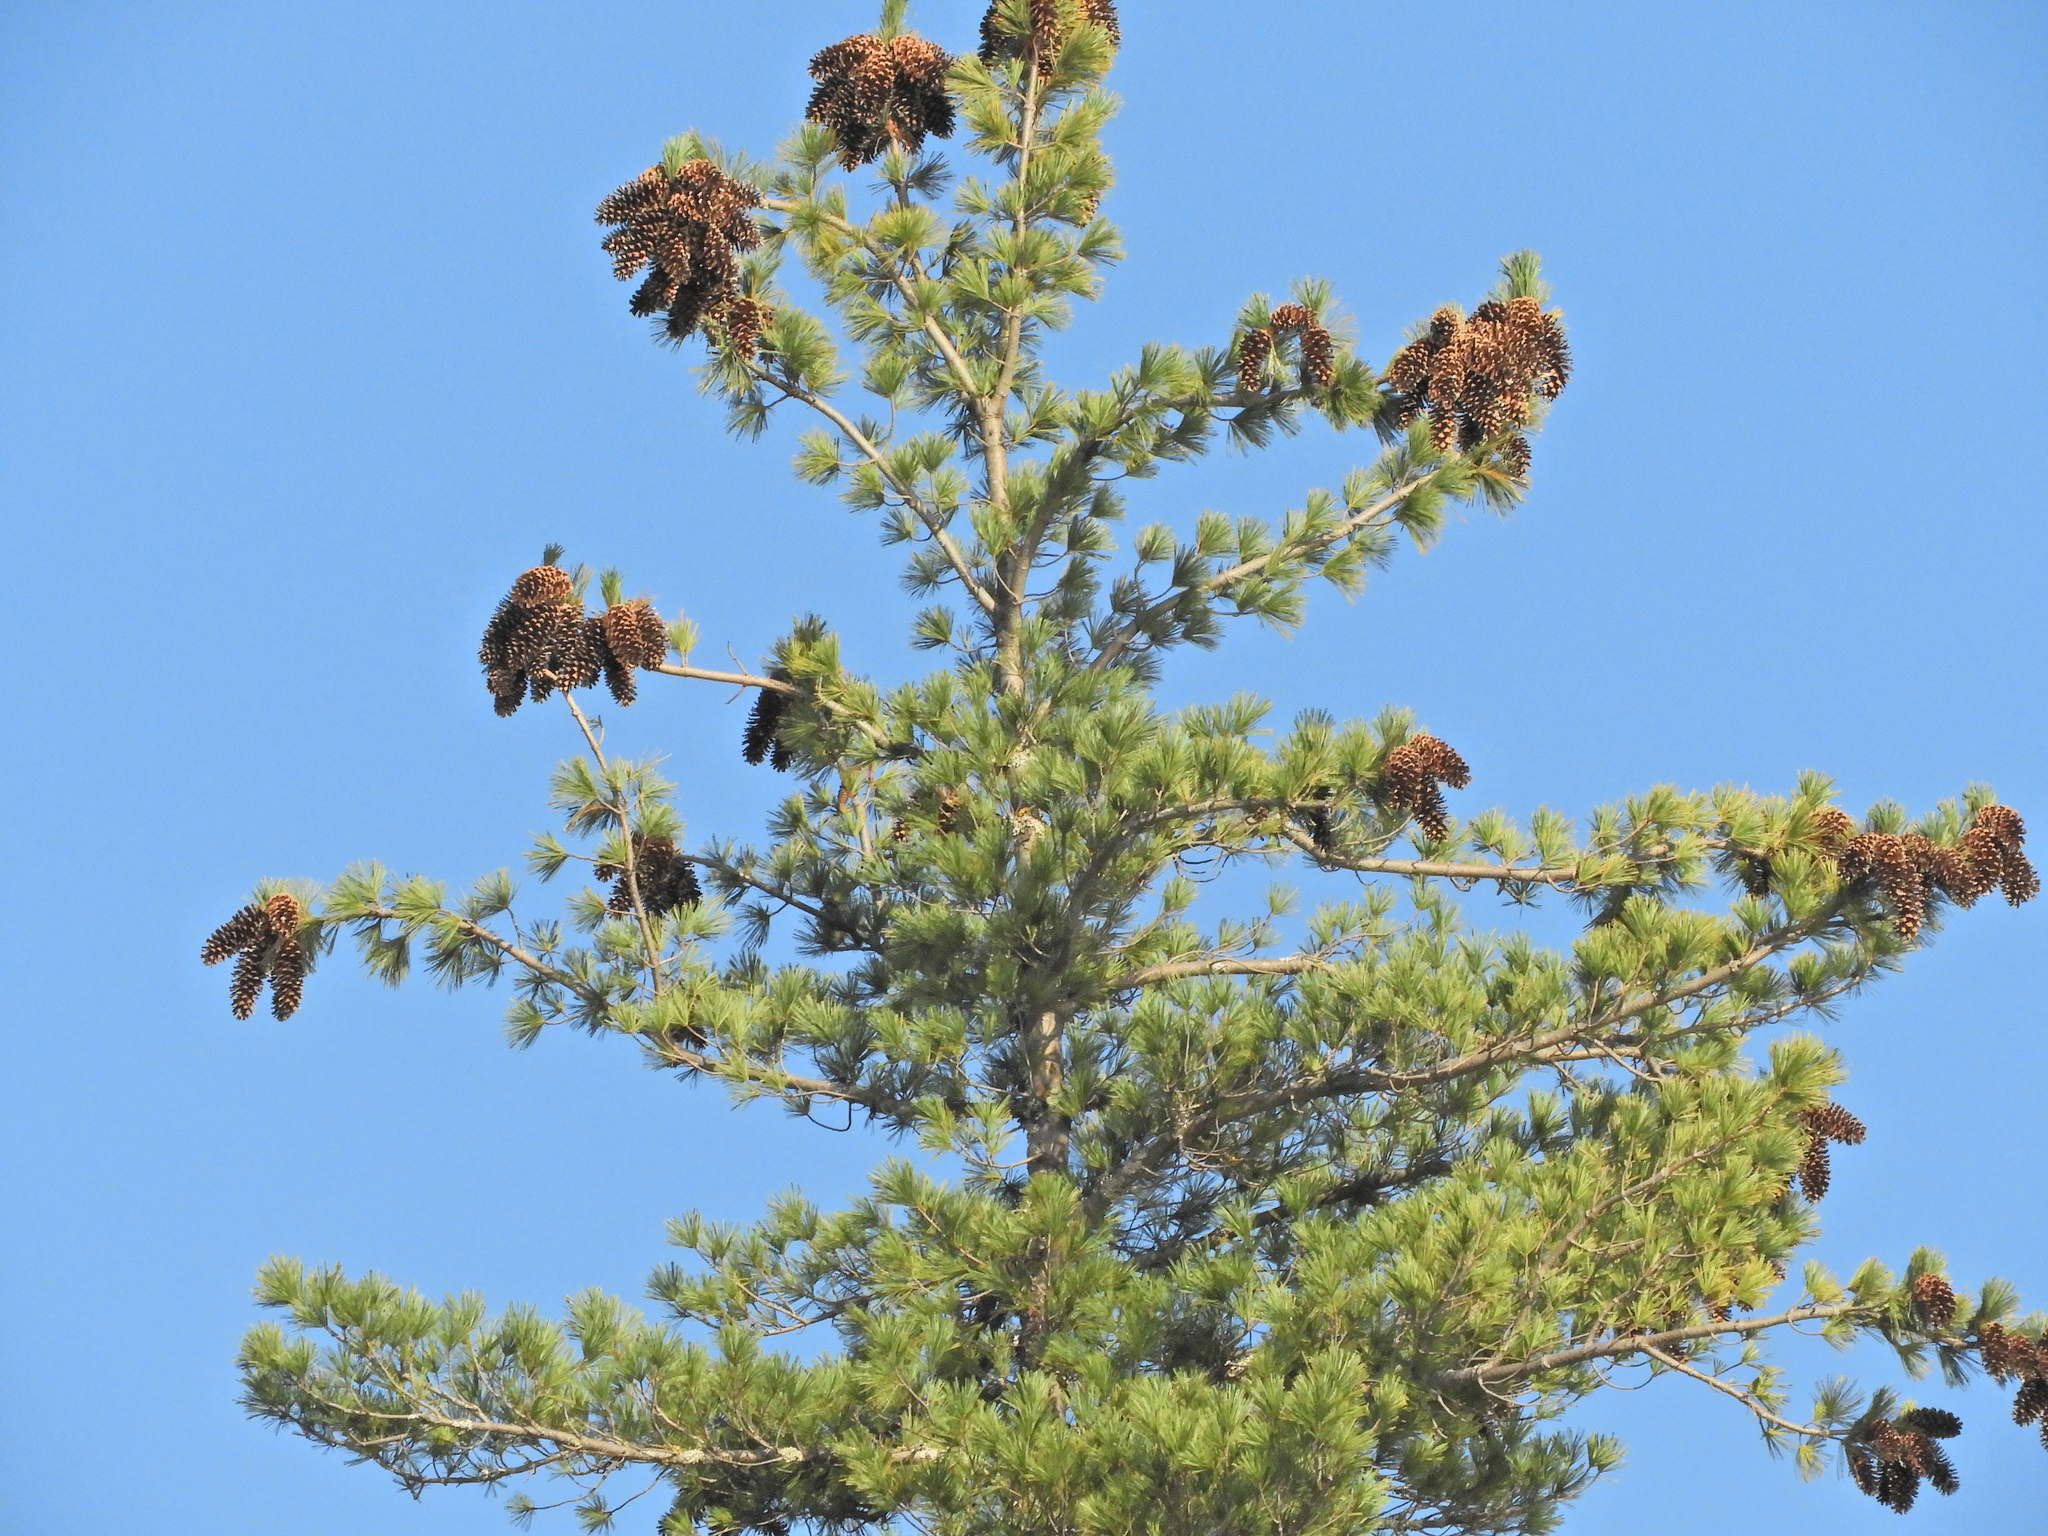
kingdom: Plantae
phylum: Tracheophyta
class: Pinopsida
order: Pinales
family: Pinaceae
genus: Pinus
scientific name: Pinus monticola
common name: Western white pine
